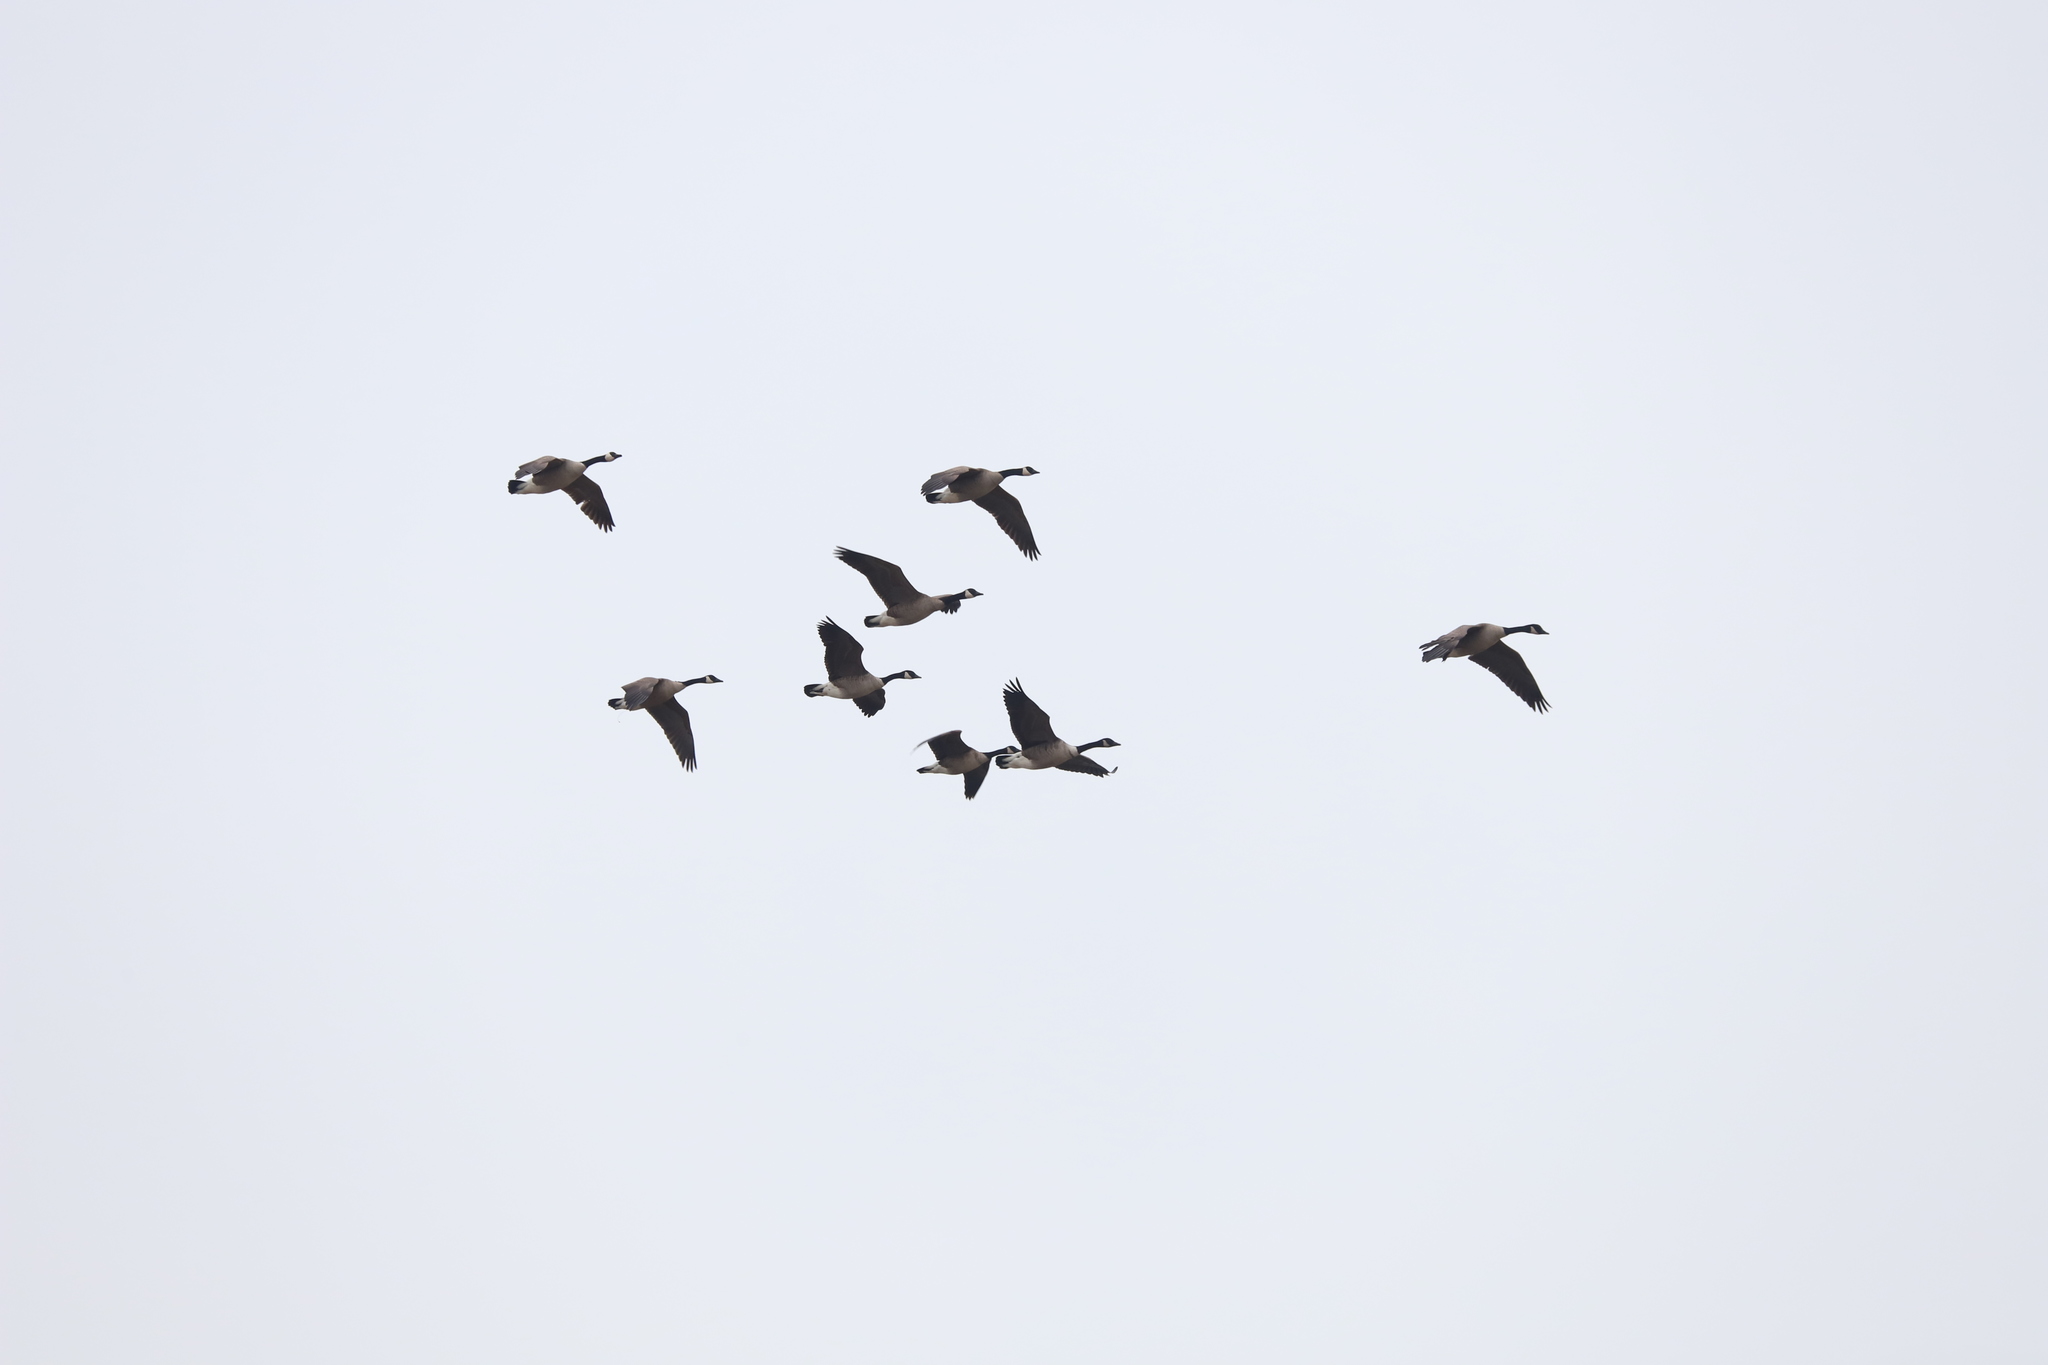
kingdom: Animalia
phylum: Chordata
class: Aves
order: Anseriformes
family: Anatidae
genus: Branta
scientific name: Branta canadensis
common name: Canada goose
